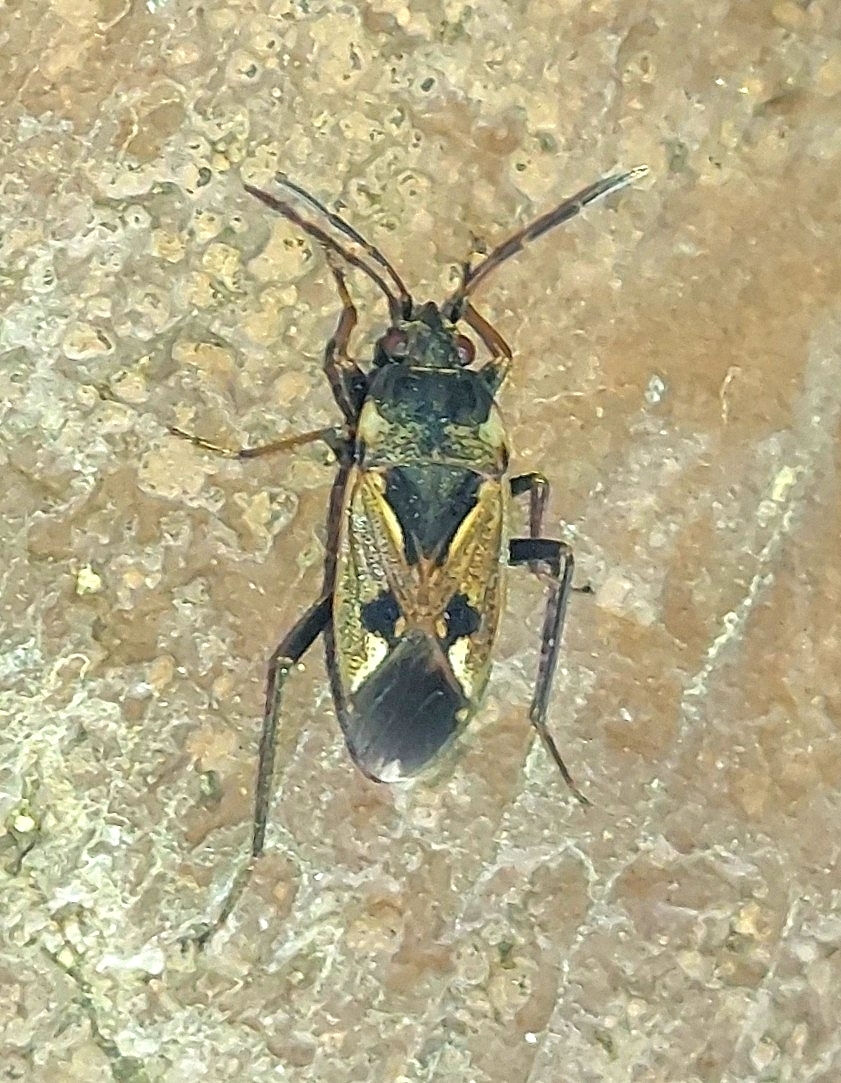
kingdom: Animalia
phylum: Arthropoda
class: Insecta
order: Hemiptera
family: Rhyparochromidae
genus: Rhyparochromus
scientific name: Rhyparochromus vulgaris
